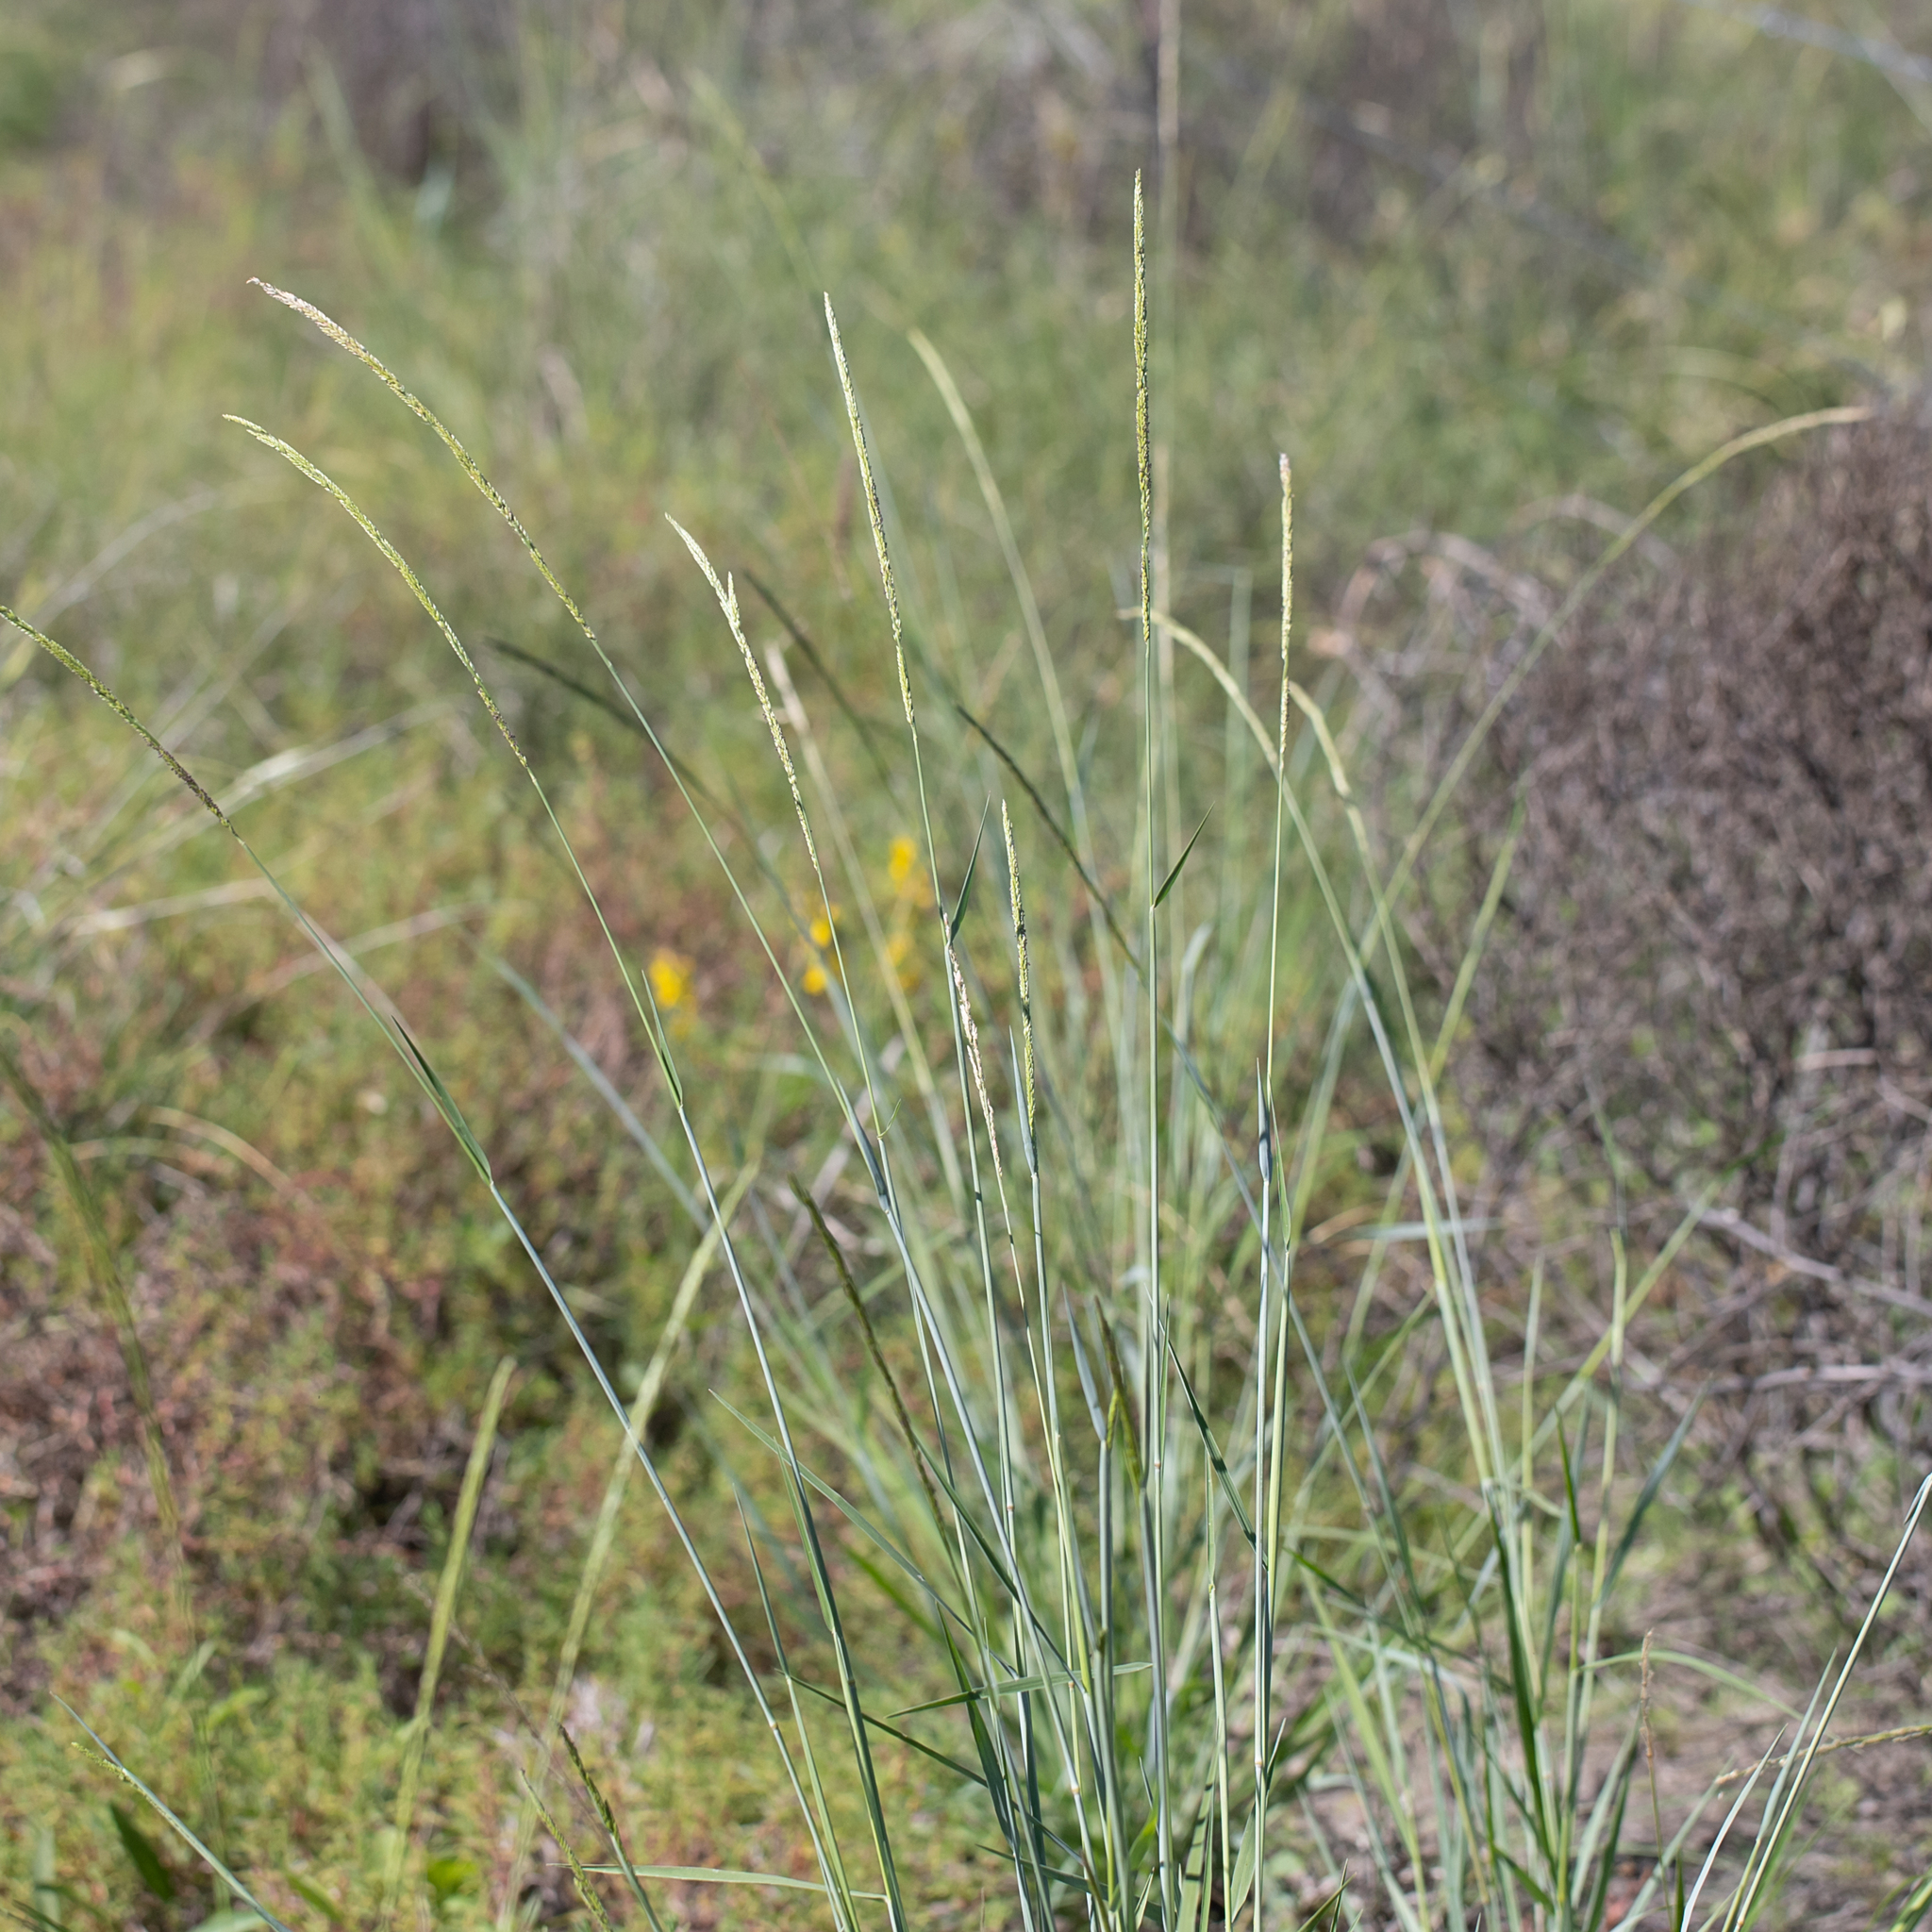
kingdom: Plantae
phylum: Tracheophyta
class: Liliopsida
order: Poales
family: Poaceae
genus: Eriochloa
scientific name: Eriochloa crebra
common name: Cup grass
